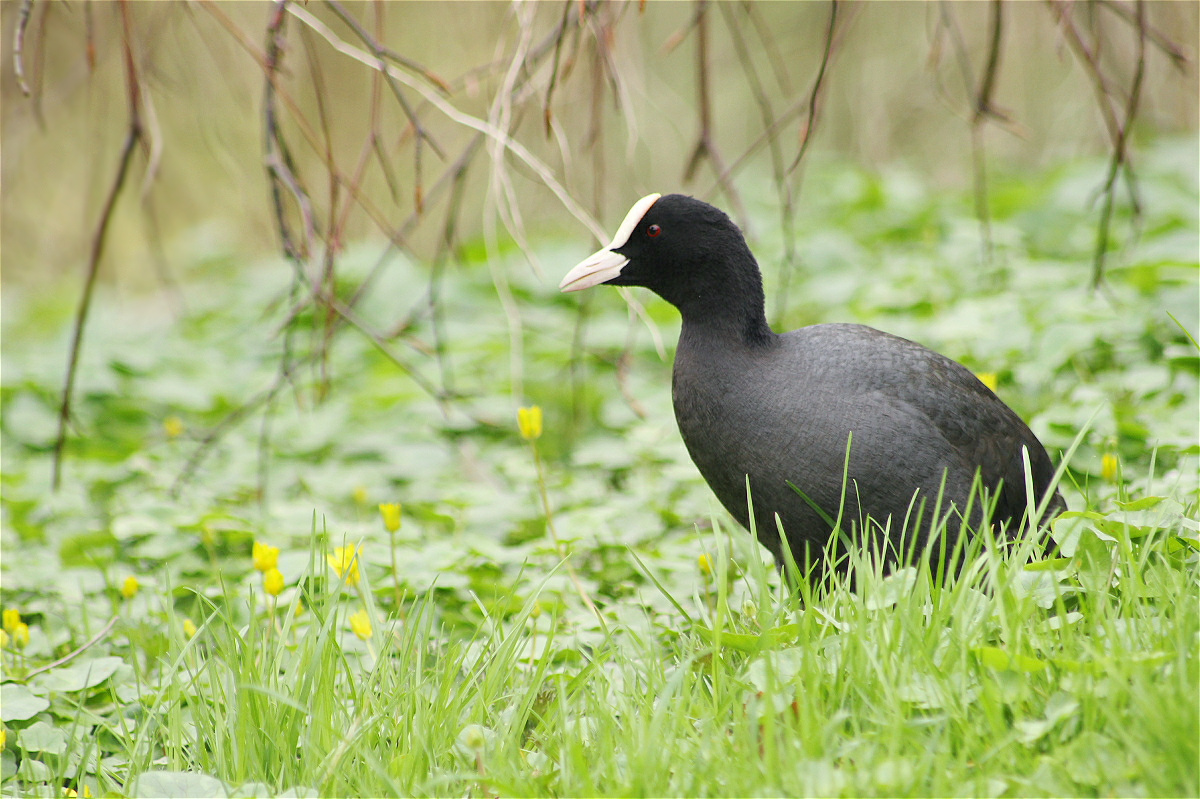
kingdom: Animalia
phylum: Chordata
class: Aves
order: Gruiformes
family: Rallidae
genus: Fulica
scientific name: Fulica atra
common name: Eurasian coot
